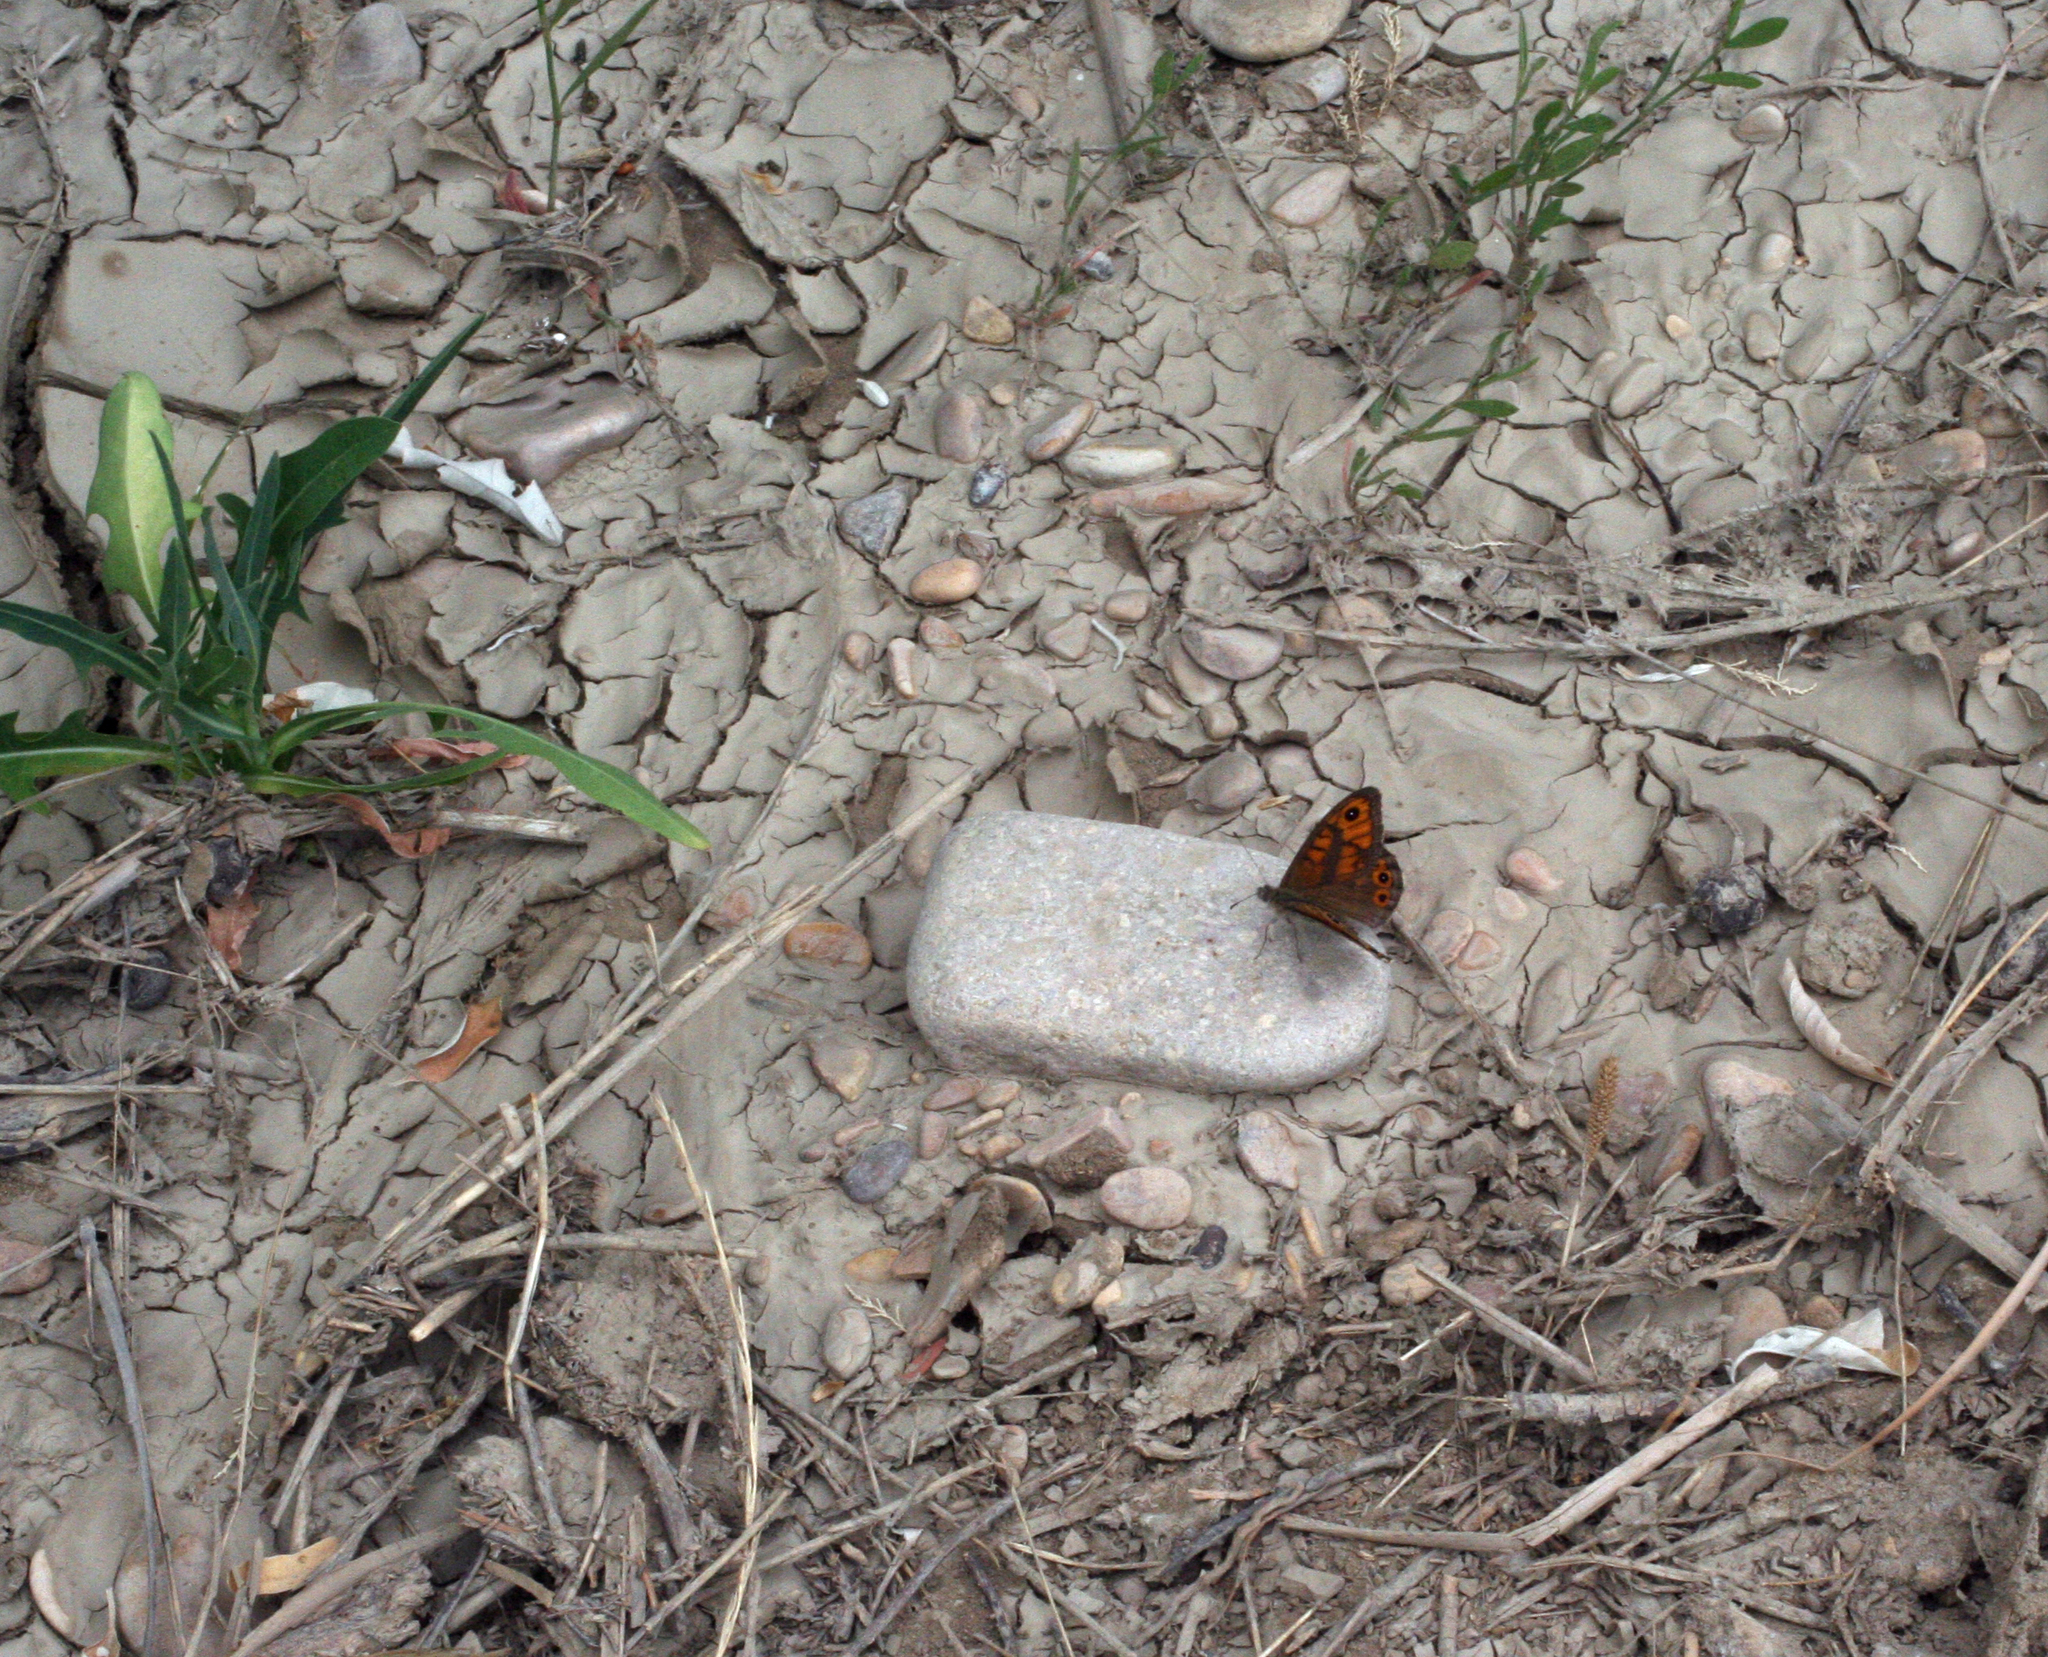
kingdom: Animalia
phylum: Arthropoda
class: Insecta
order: Lepidoptera
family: Nymphalidae
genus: Pararge
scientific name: Pararge Lasiommata megera
